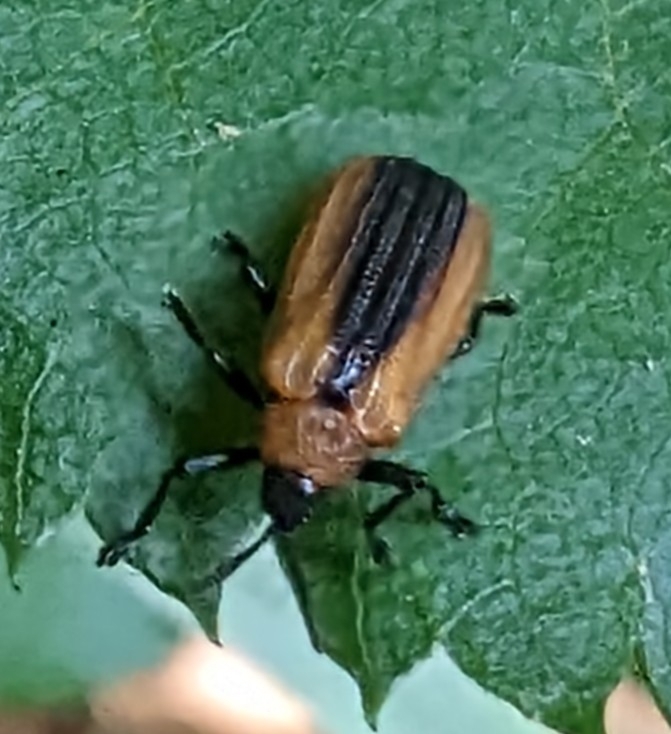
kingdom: Animalia
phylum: Arthropoda
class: Insecta
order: Coleoptera
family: Chrysomelidae
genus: Odontota
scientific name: Odontota dorsalis
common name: Locust leaf-miner beetle
